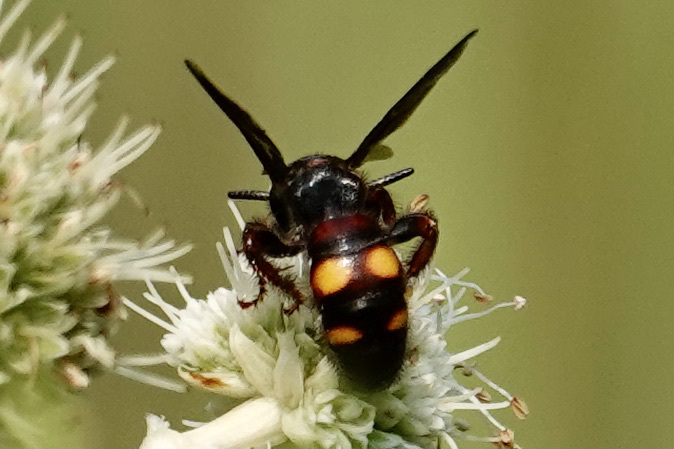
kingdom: Animalia
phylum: Arthropoda
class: Insecta
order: Hymenoptera
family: Scoliidae
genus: Scolia
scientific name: Scolia nobilitata
